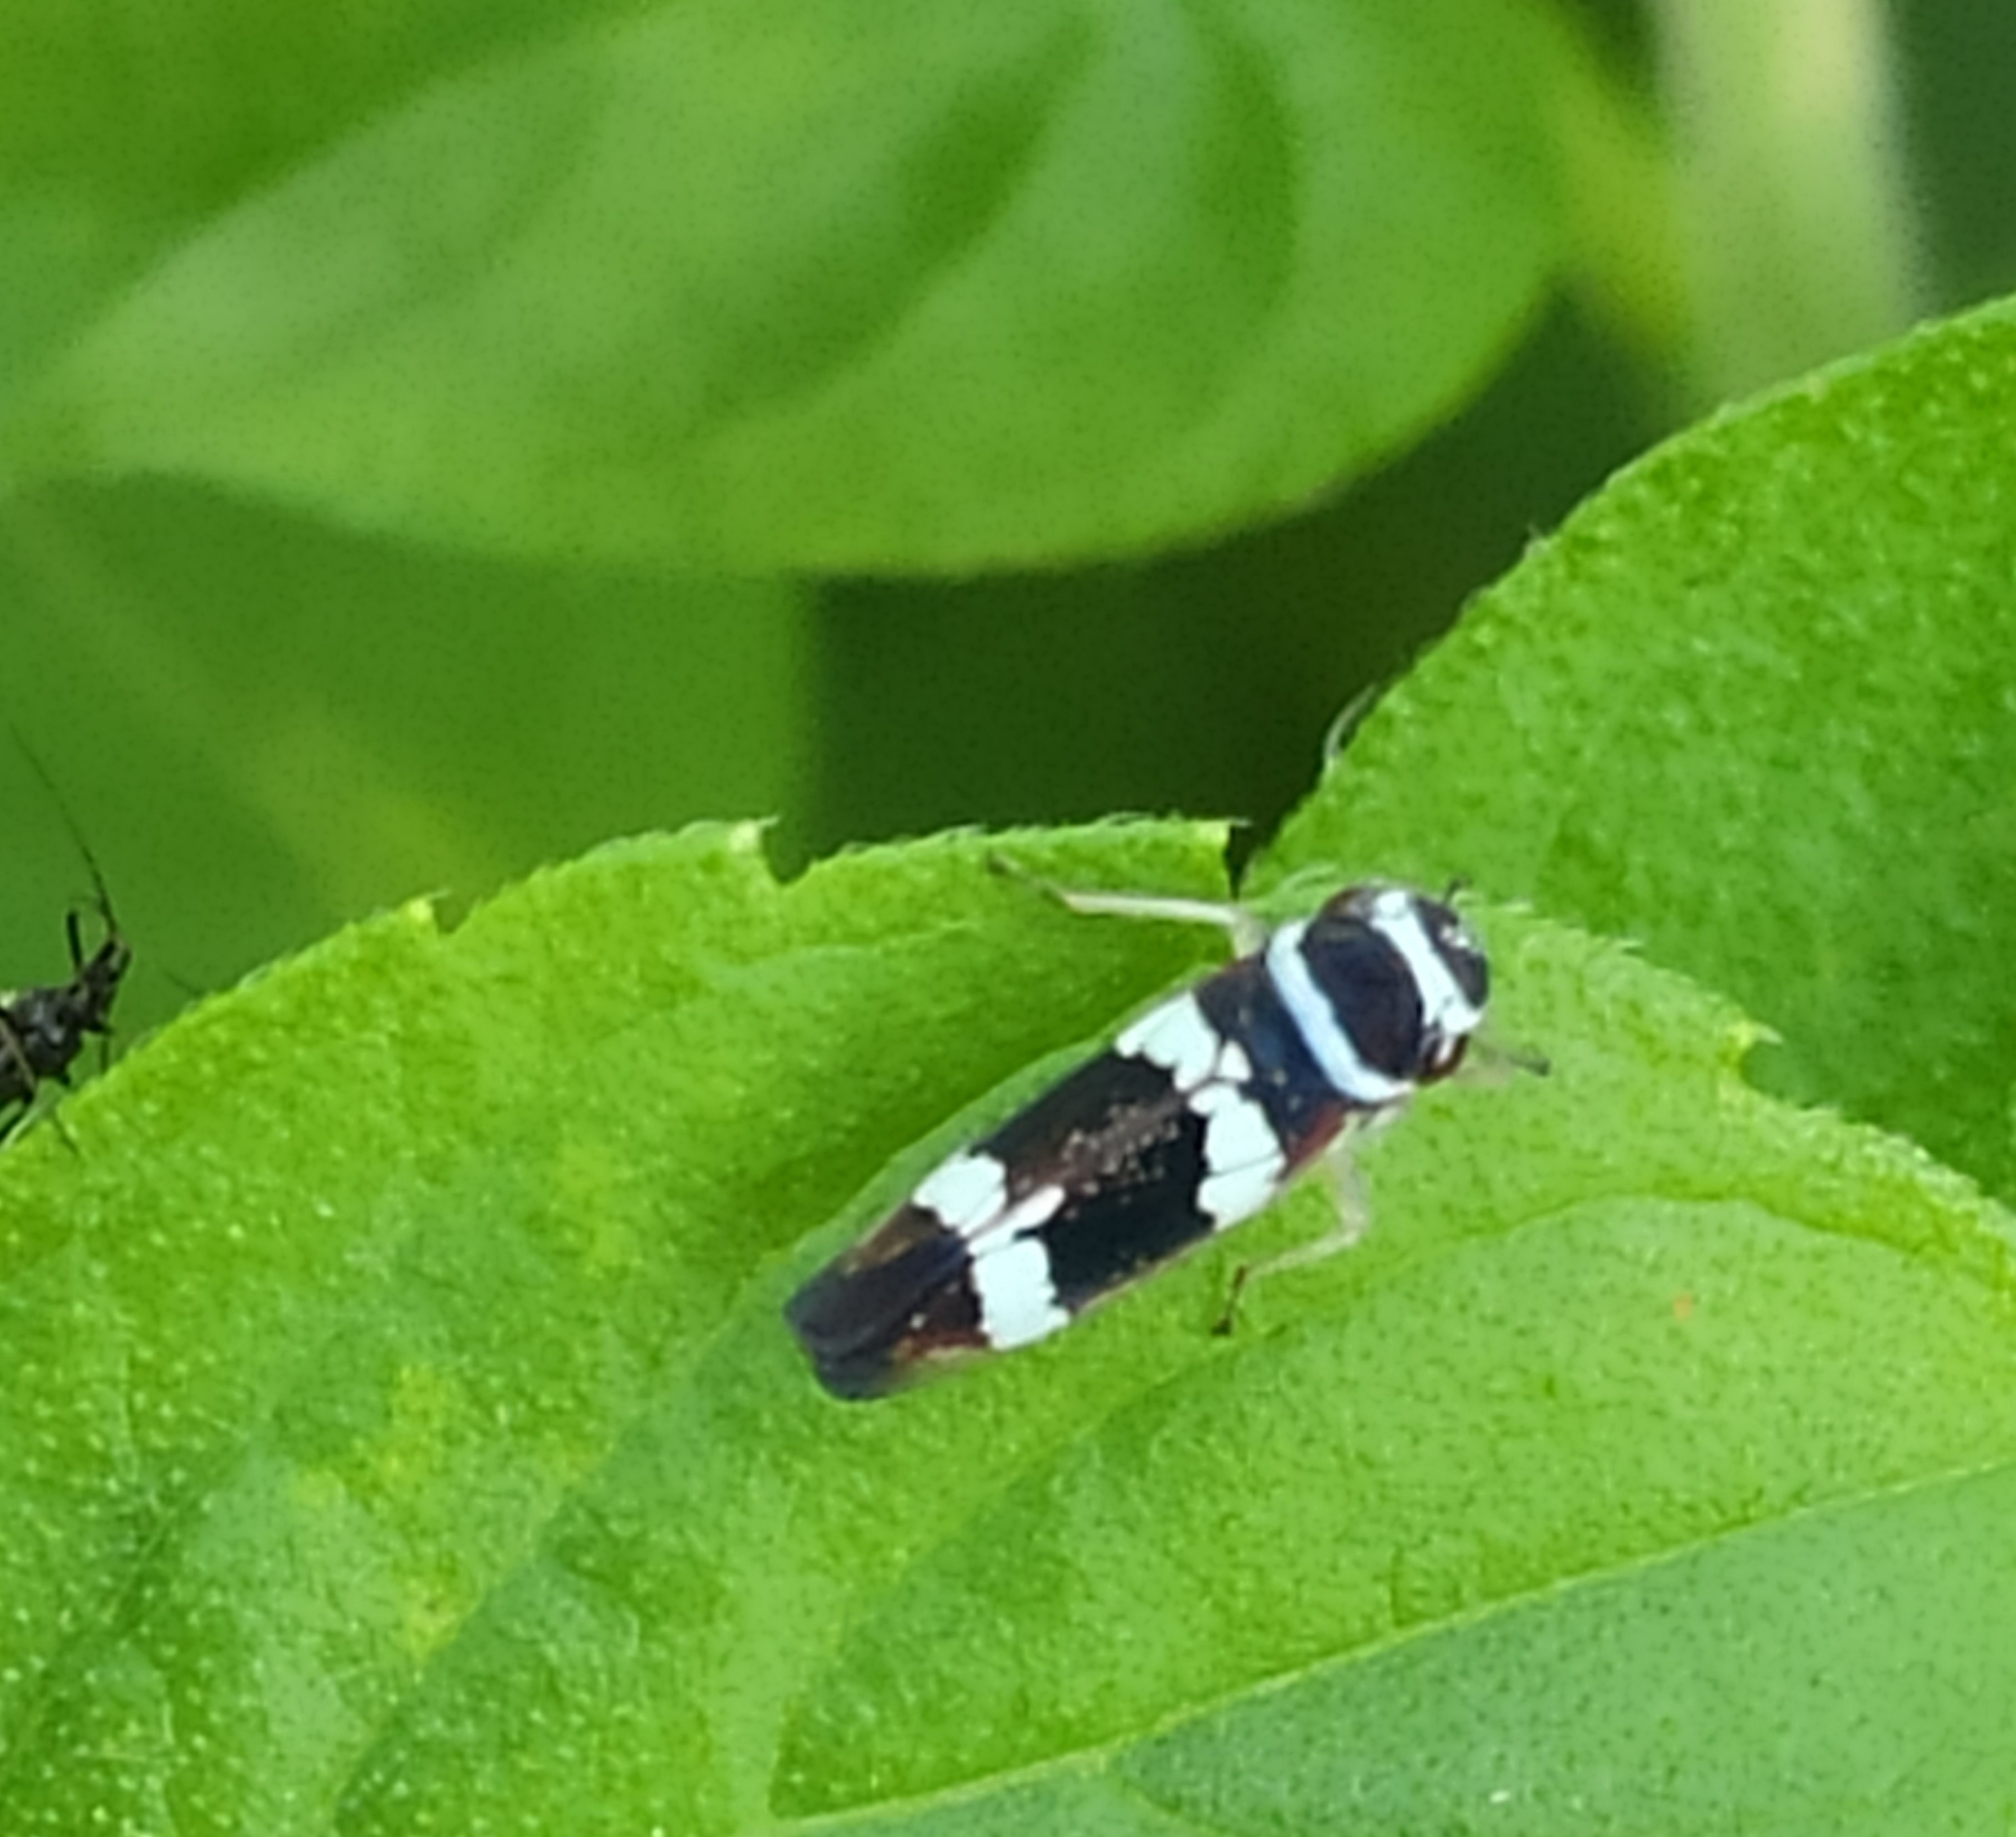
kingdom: Animalia
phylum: Arthropoda
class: Insecta
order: Hemiptera
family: Cicadellidae
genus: Macugonalia
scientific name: Macugonalia leucomelas
